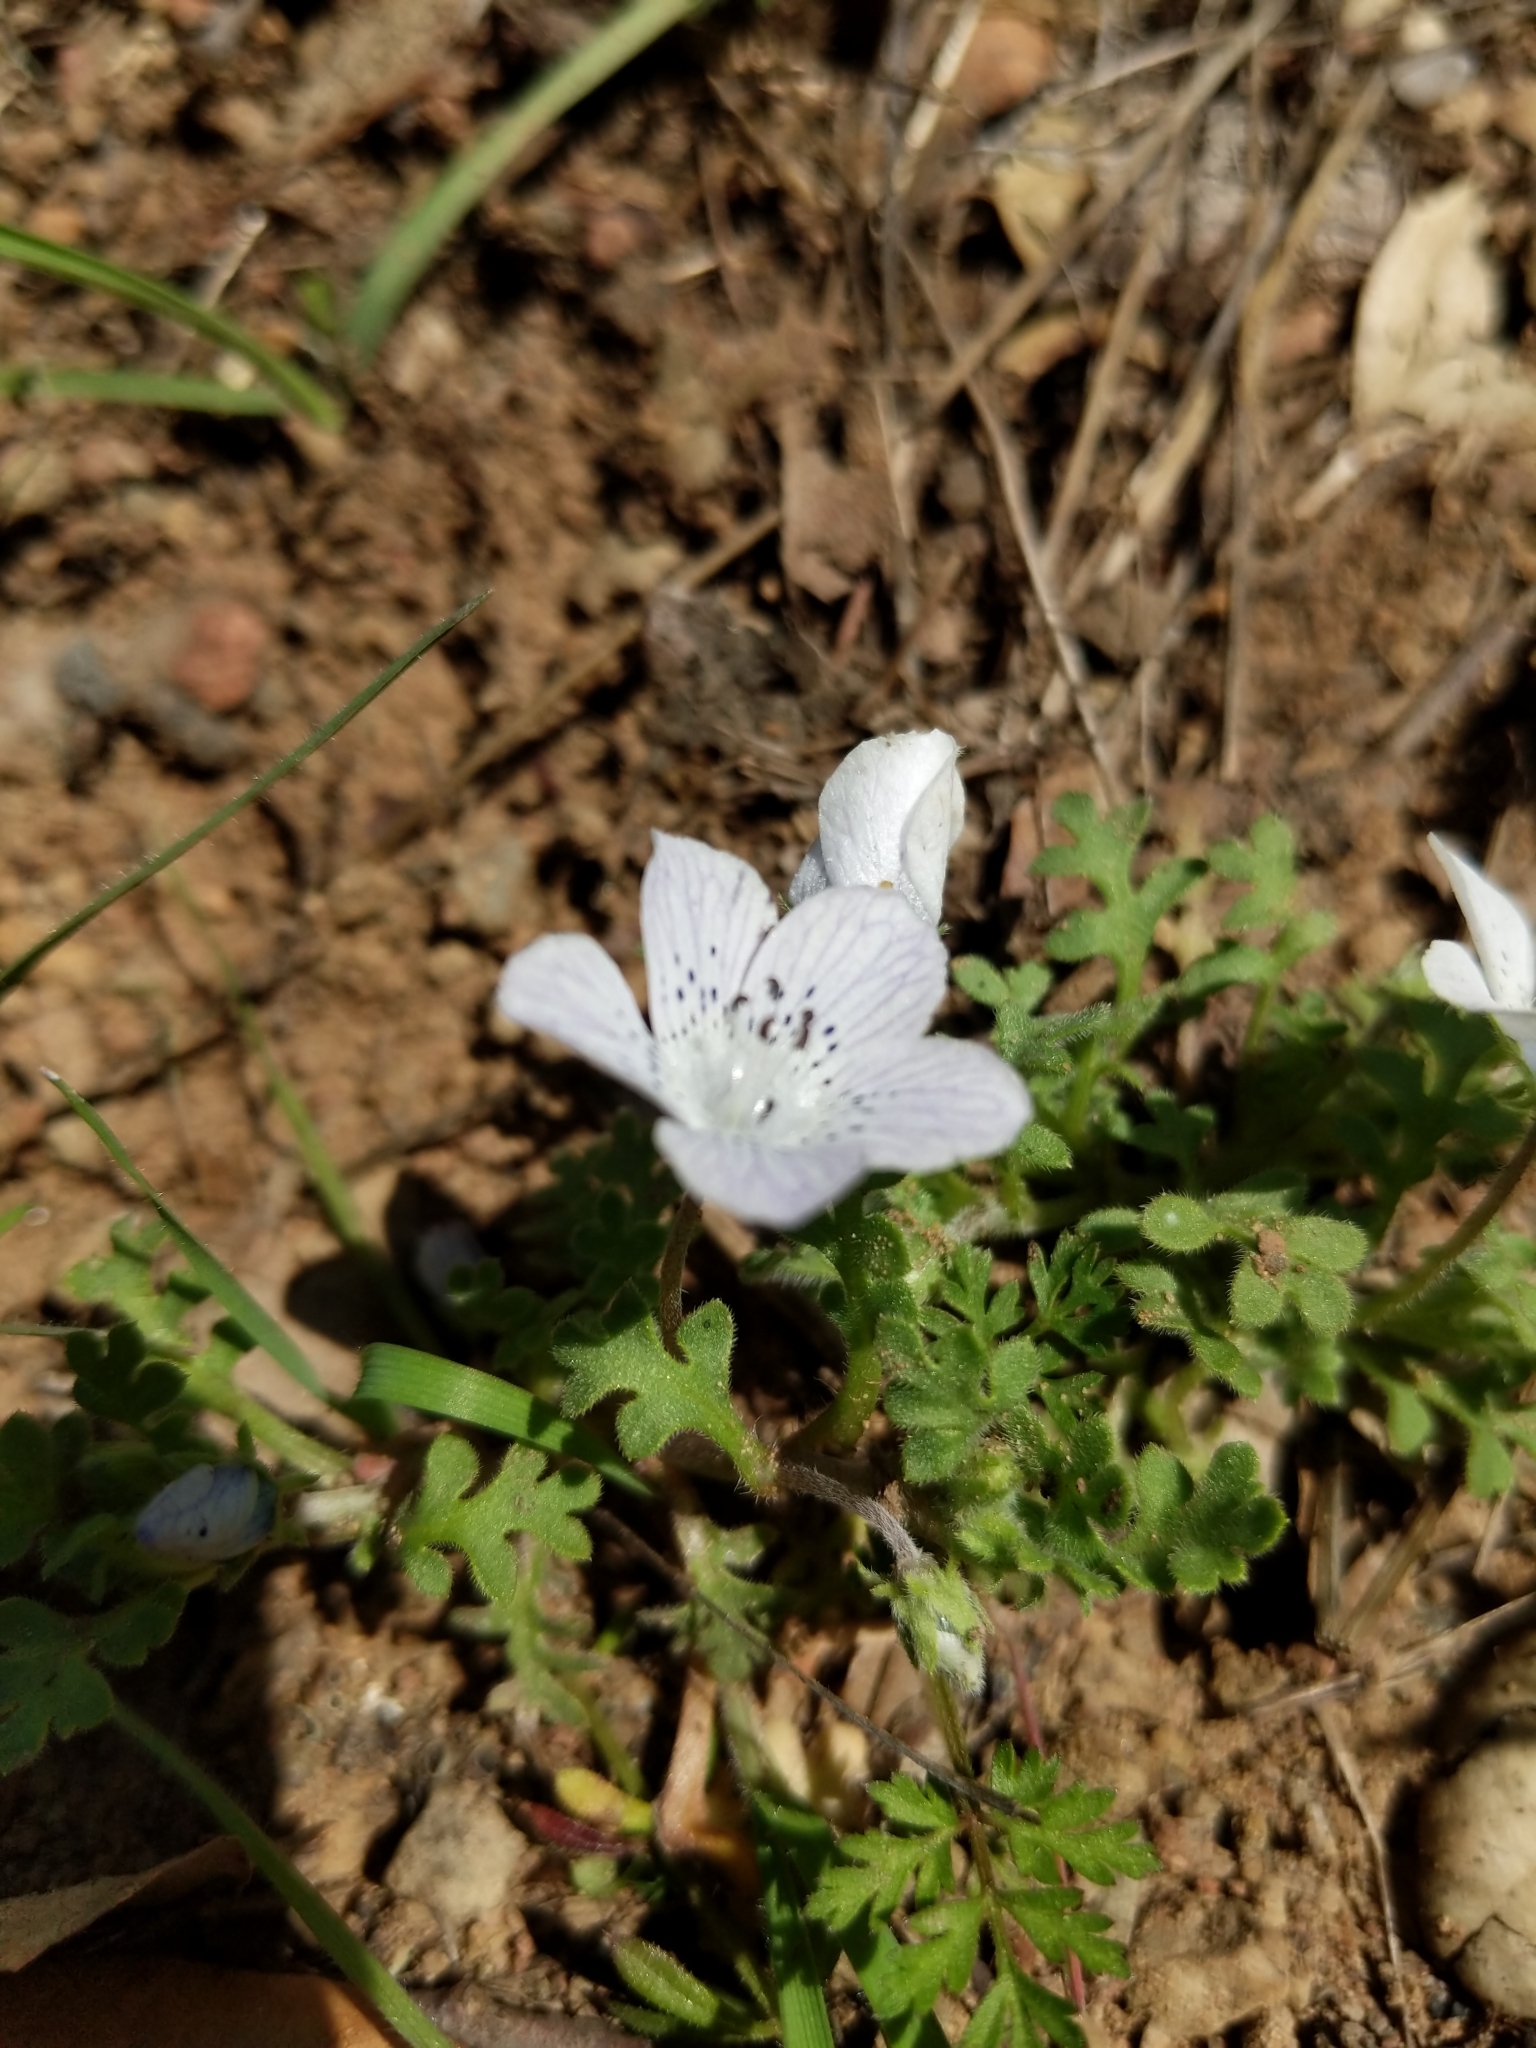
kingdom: Plantae
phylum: Tracheophyta
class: Magnoliopsida
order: Boraginales
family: Hydrophyllaceae
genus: Nemophila
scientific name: Nemophila menziesii
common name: Baby's-blue-eyes
